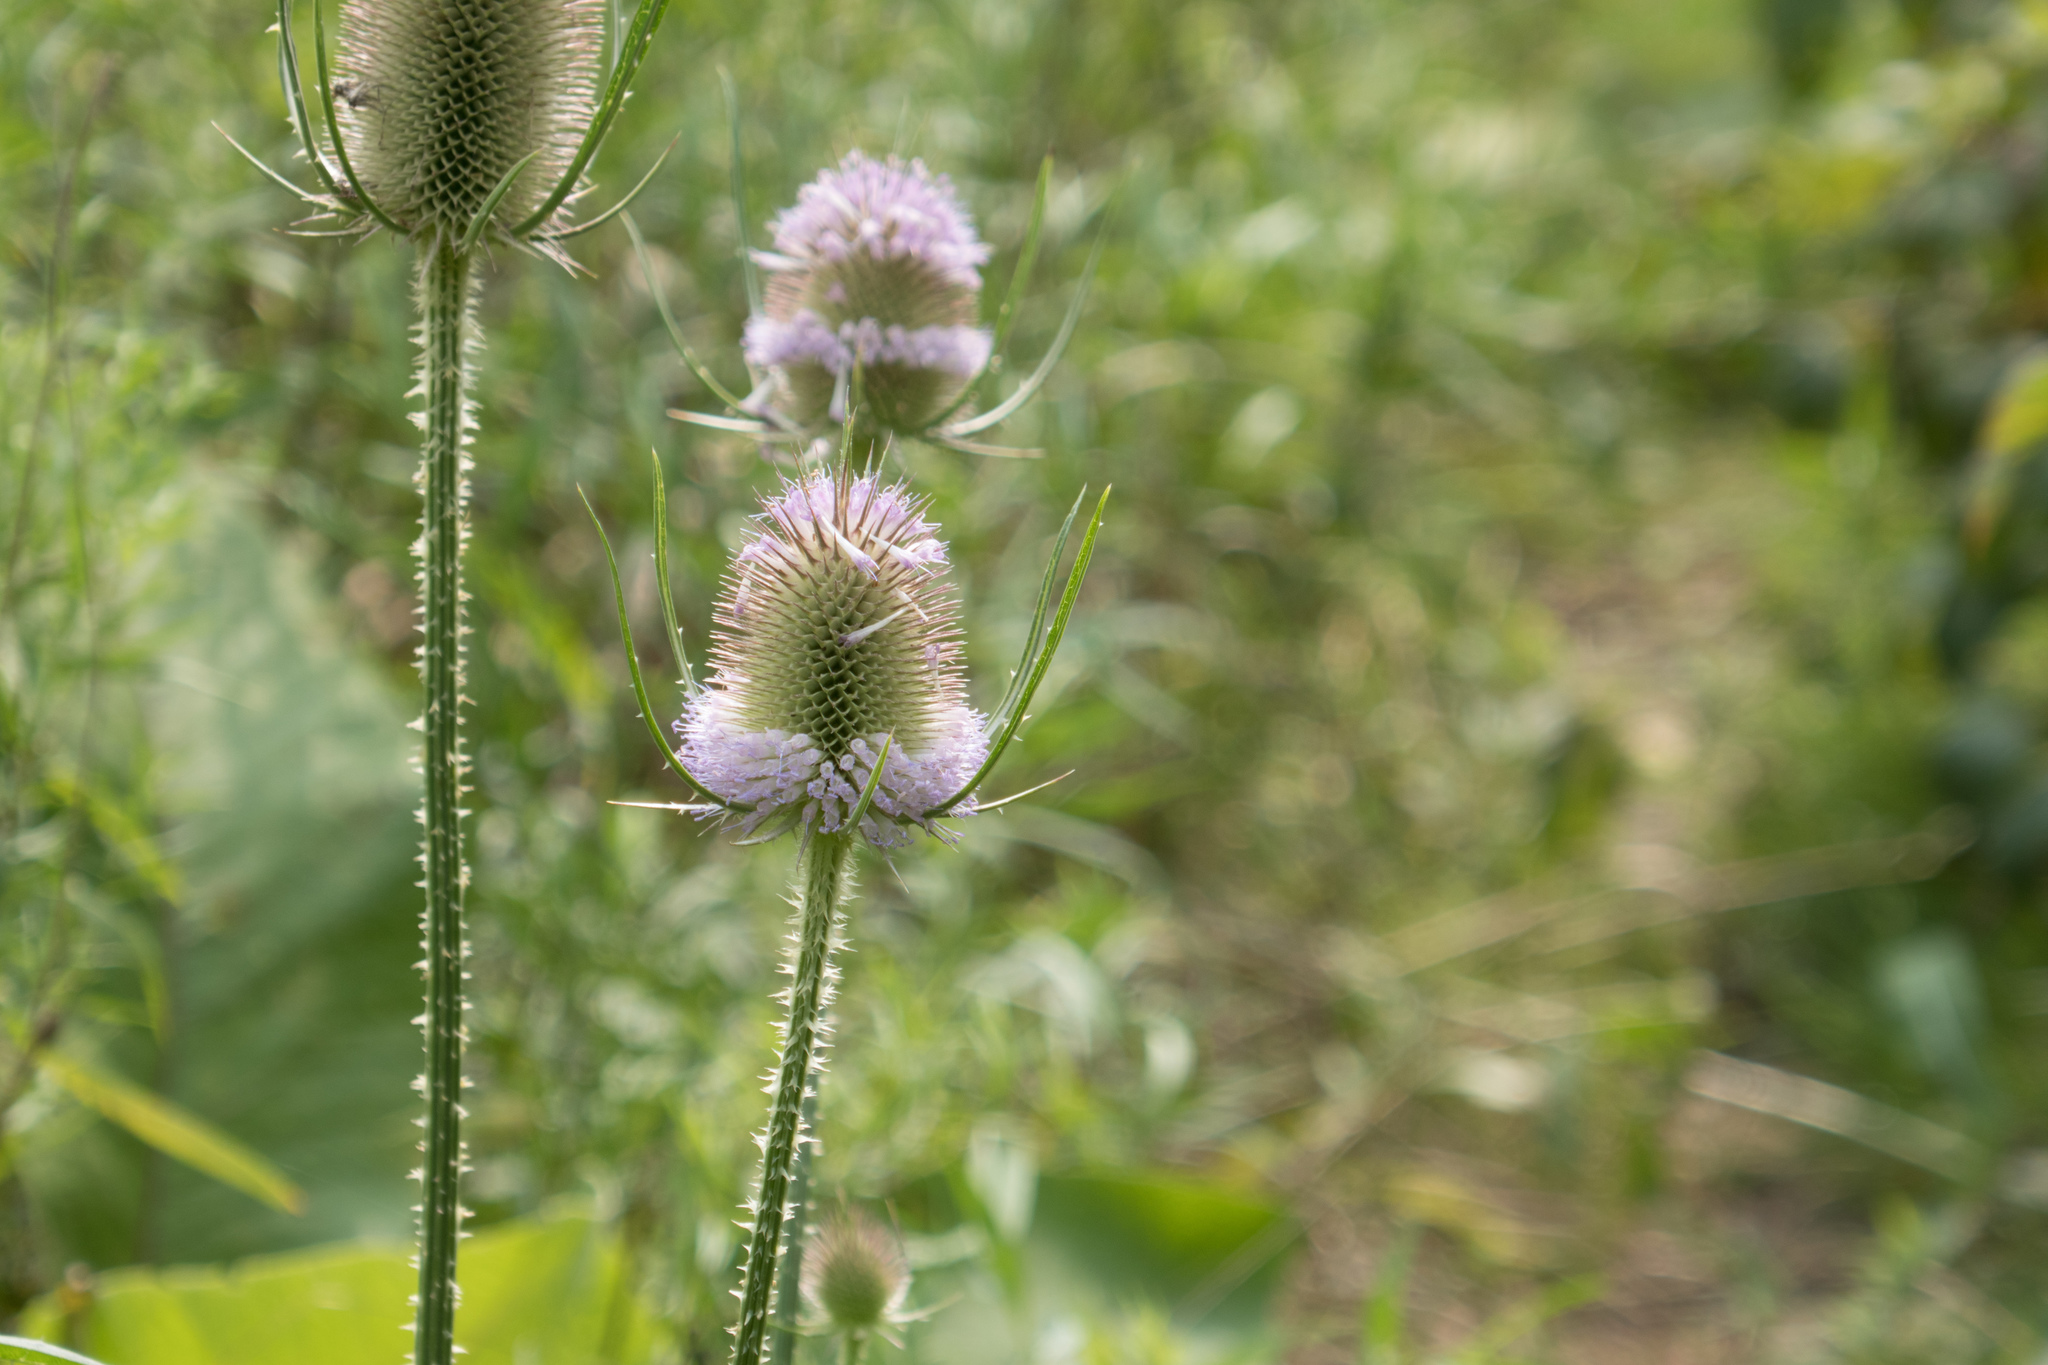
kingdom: Plantae
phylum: Tracheophyta
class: Magnoliopsida
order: Dipsacales
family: Caprifoliaceae
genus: Dipsacus
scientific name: Dipsacus fullonum
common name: Teasel
